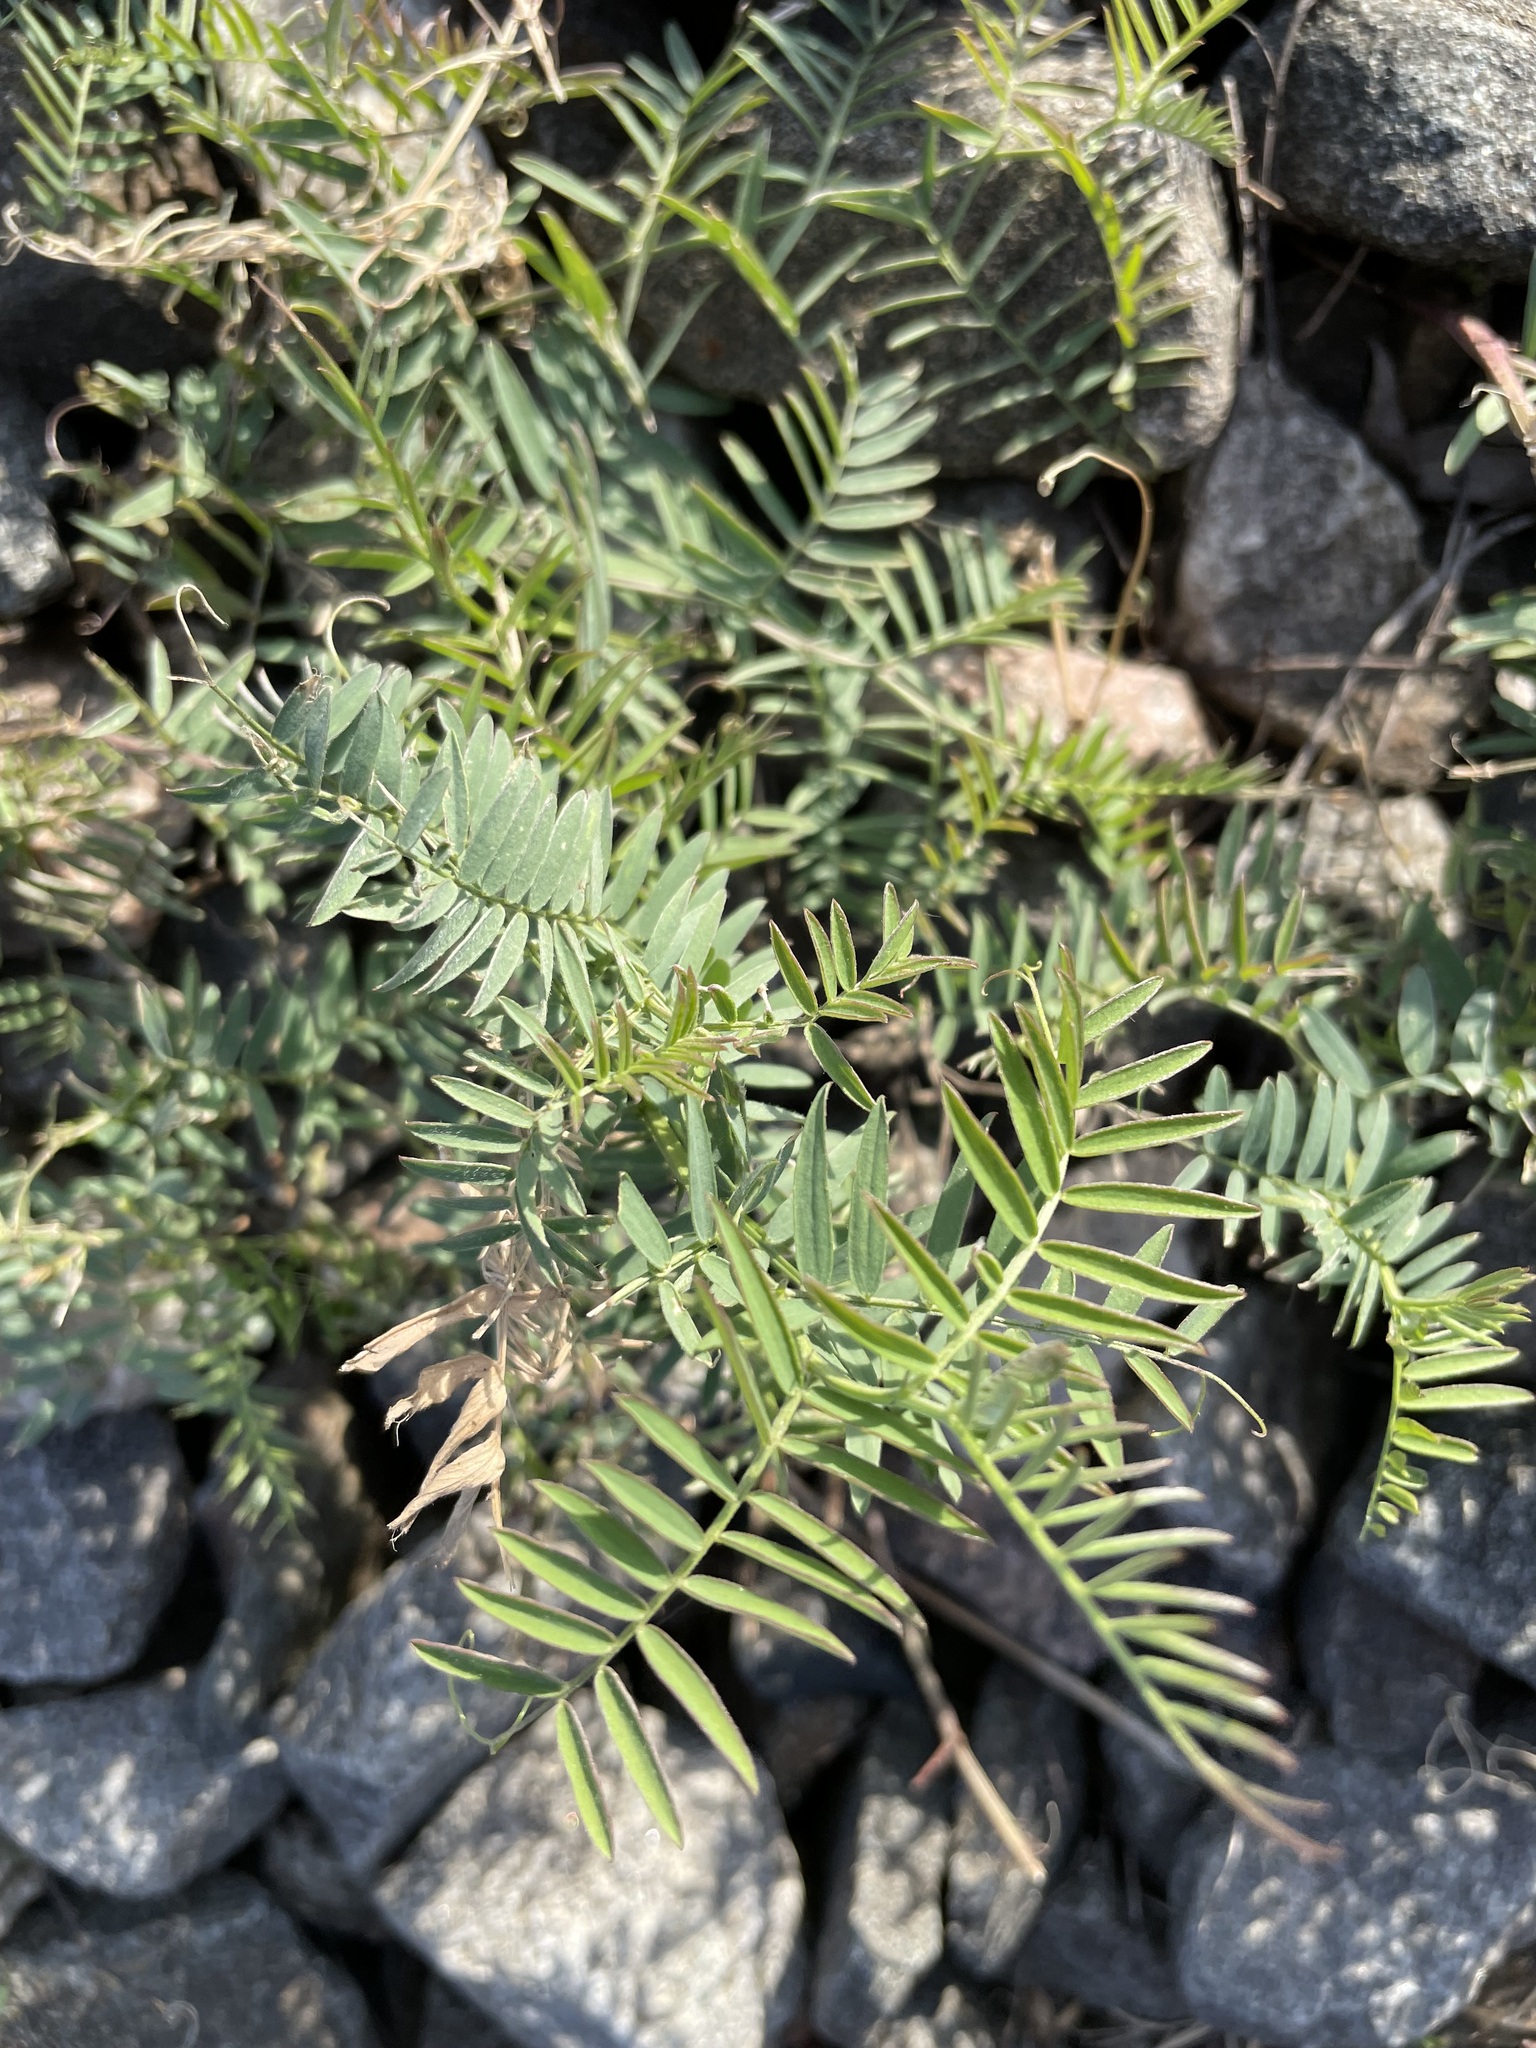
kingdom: Plantae
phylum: Tracheophyta
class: Magnoliopsida
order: Fabales
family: Fabaceae
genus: Vicia
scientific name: Vicia cracca
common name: Bird vetch
